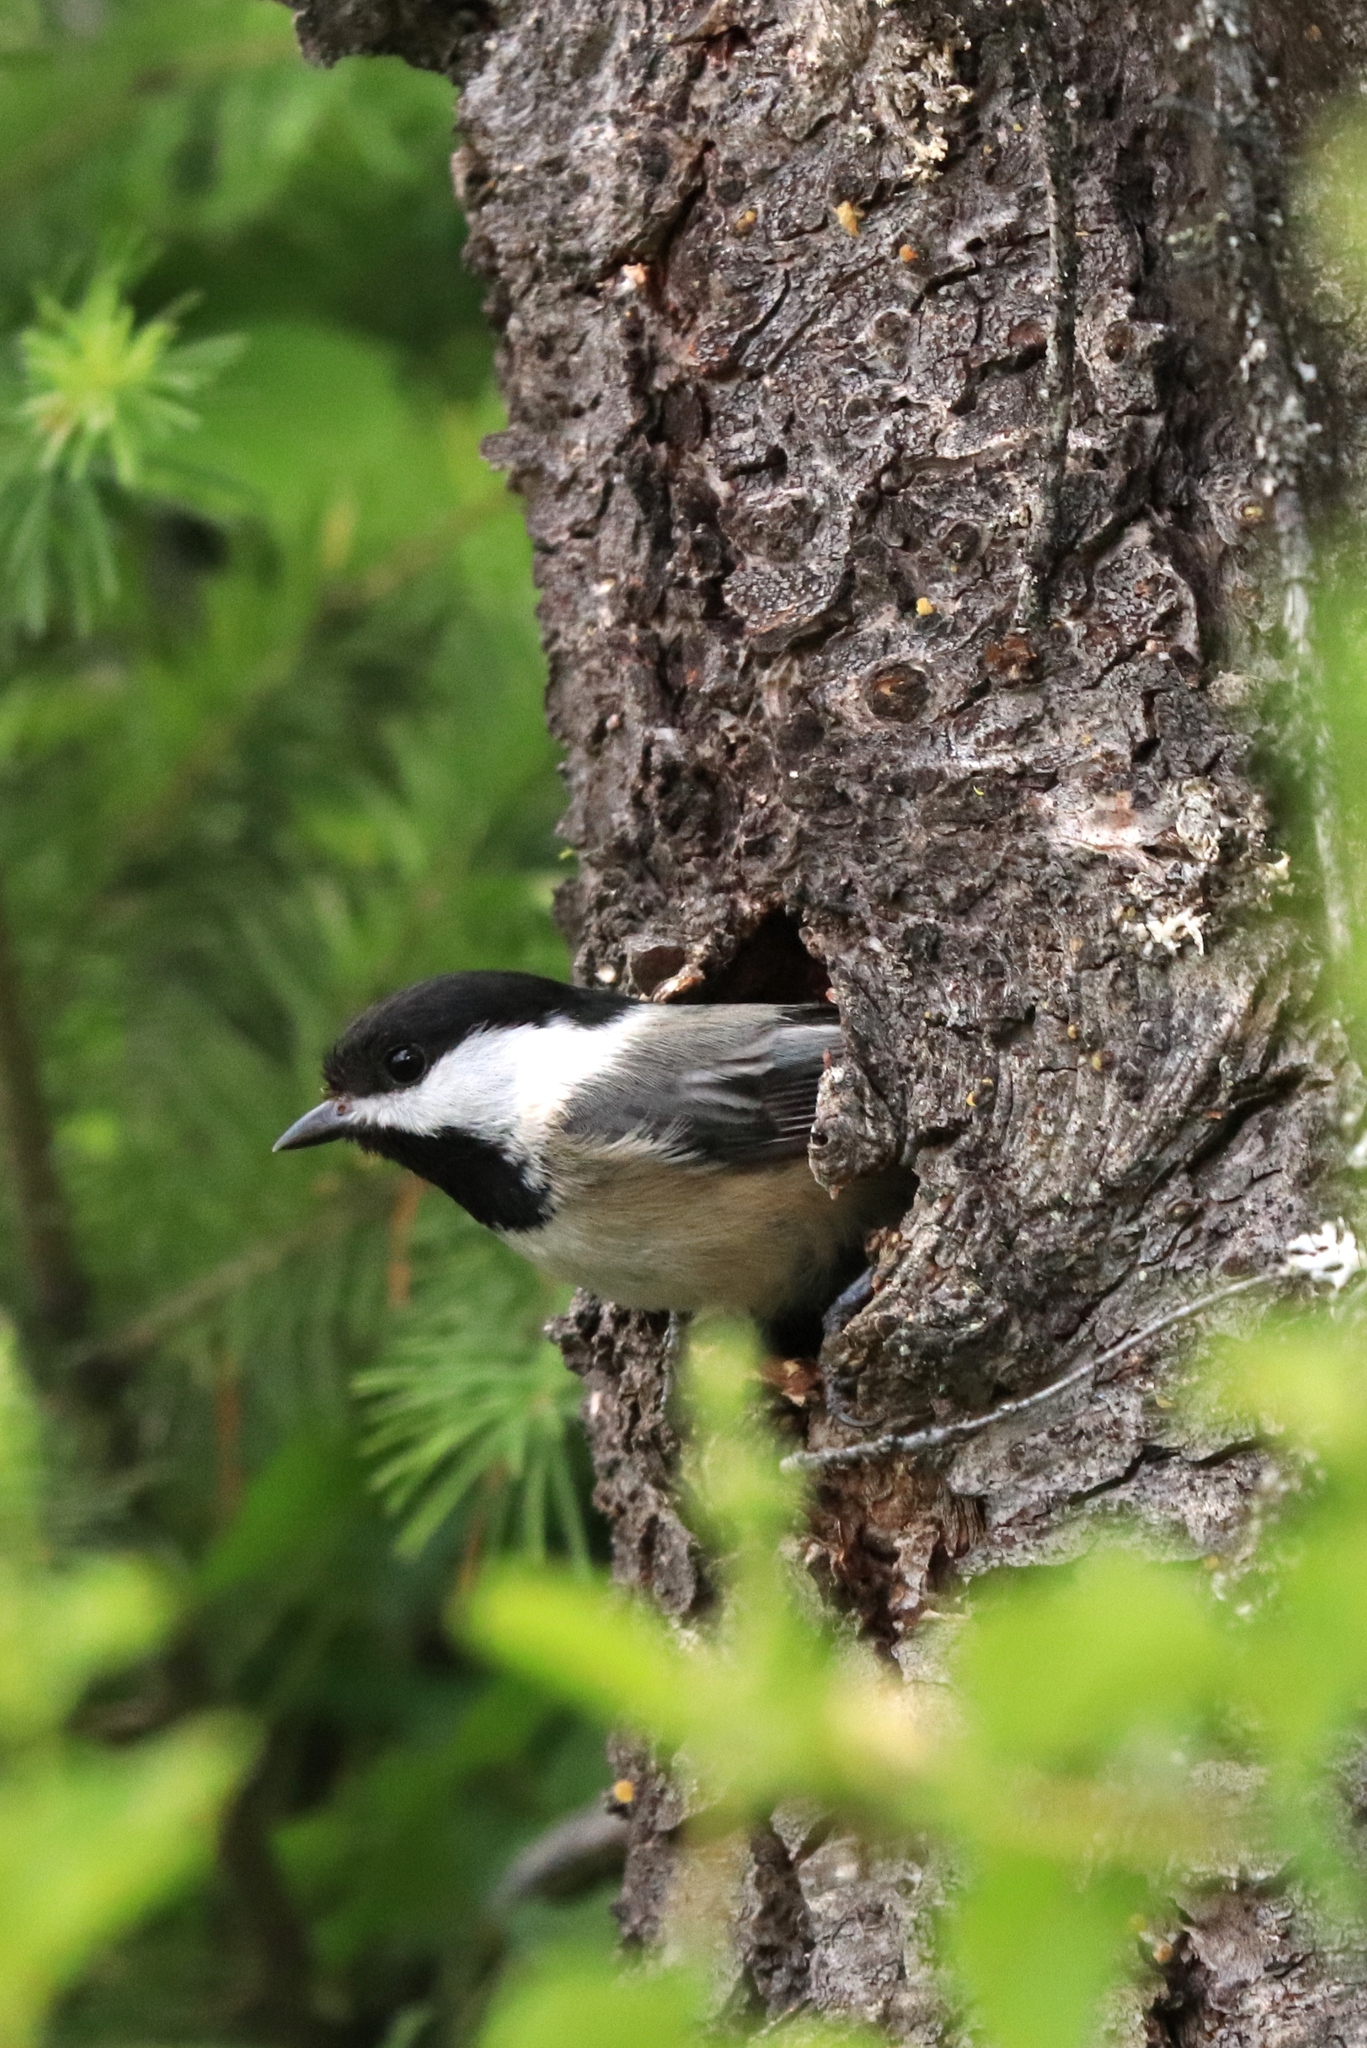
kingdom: Animalia
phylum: Chordata
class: Aves
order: Passeriformes
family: Paridae
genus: Poecile
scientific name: Poecile atricapillus
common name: Black-capped chickadee
